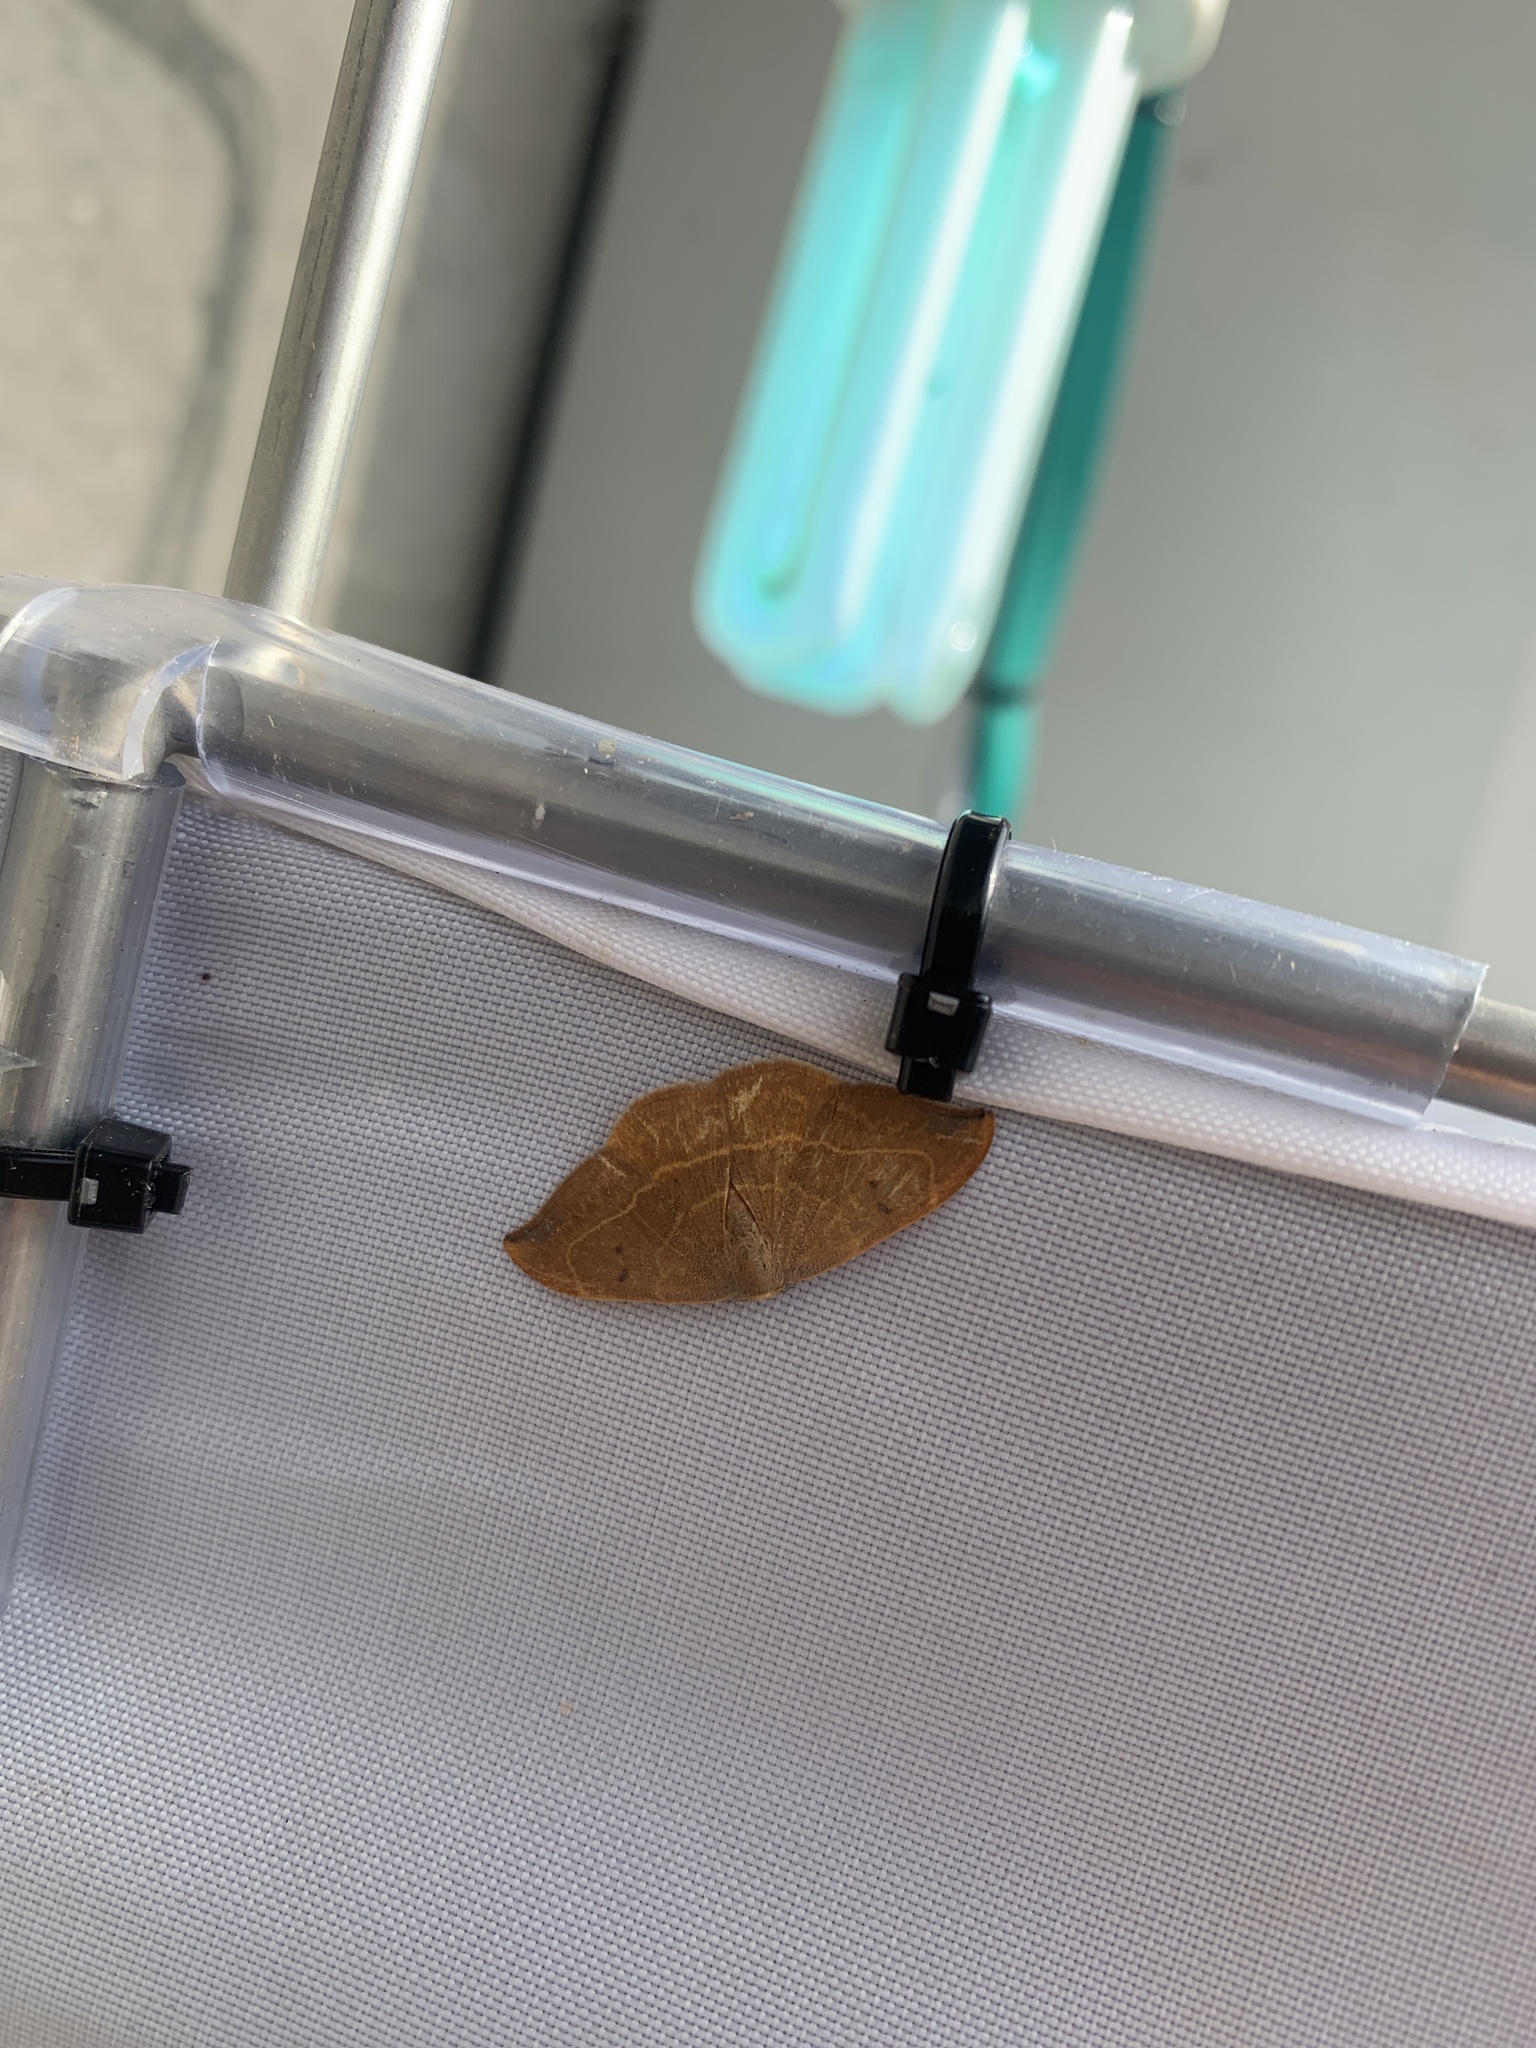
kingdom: Animalia
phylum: Arthropoda
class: Insecta
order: Lepidoptera
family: Drepanidae
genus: Watsonalla
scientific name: Watsonalla binaria
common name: Oak hook-tip
